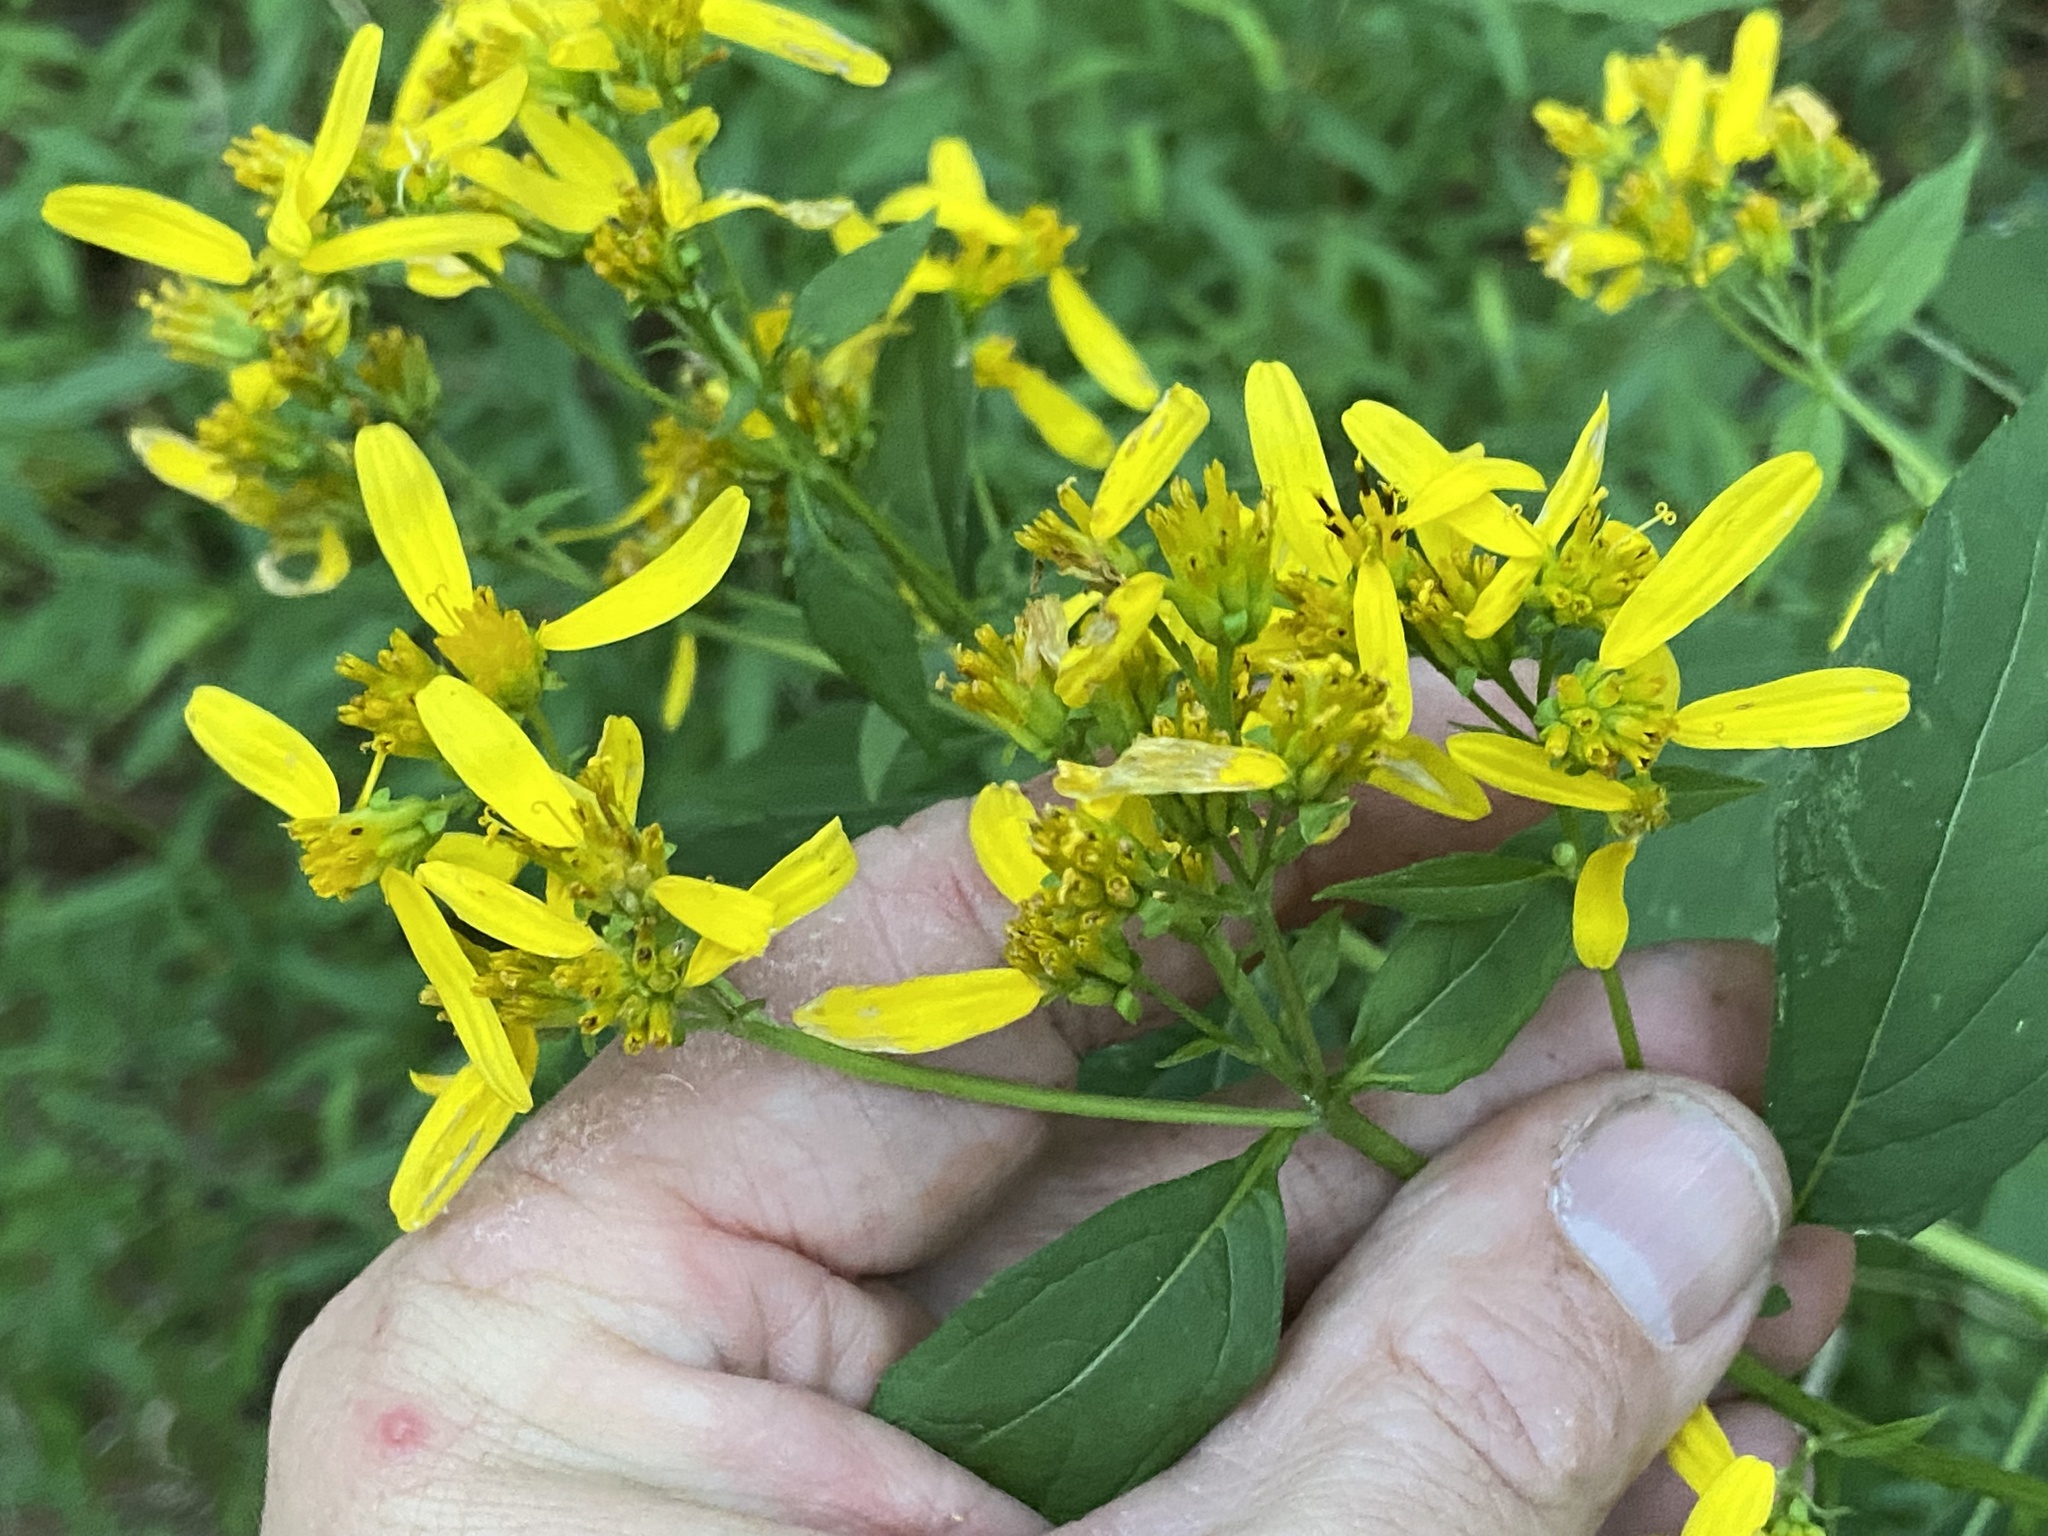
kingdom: Plantae
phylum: Tracheophyta
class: Magnoliopsida
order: Asterales
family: Asteraceae
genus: Verbesina
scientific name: Verbesina occidentalis
